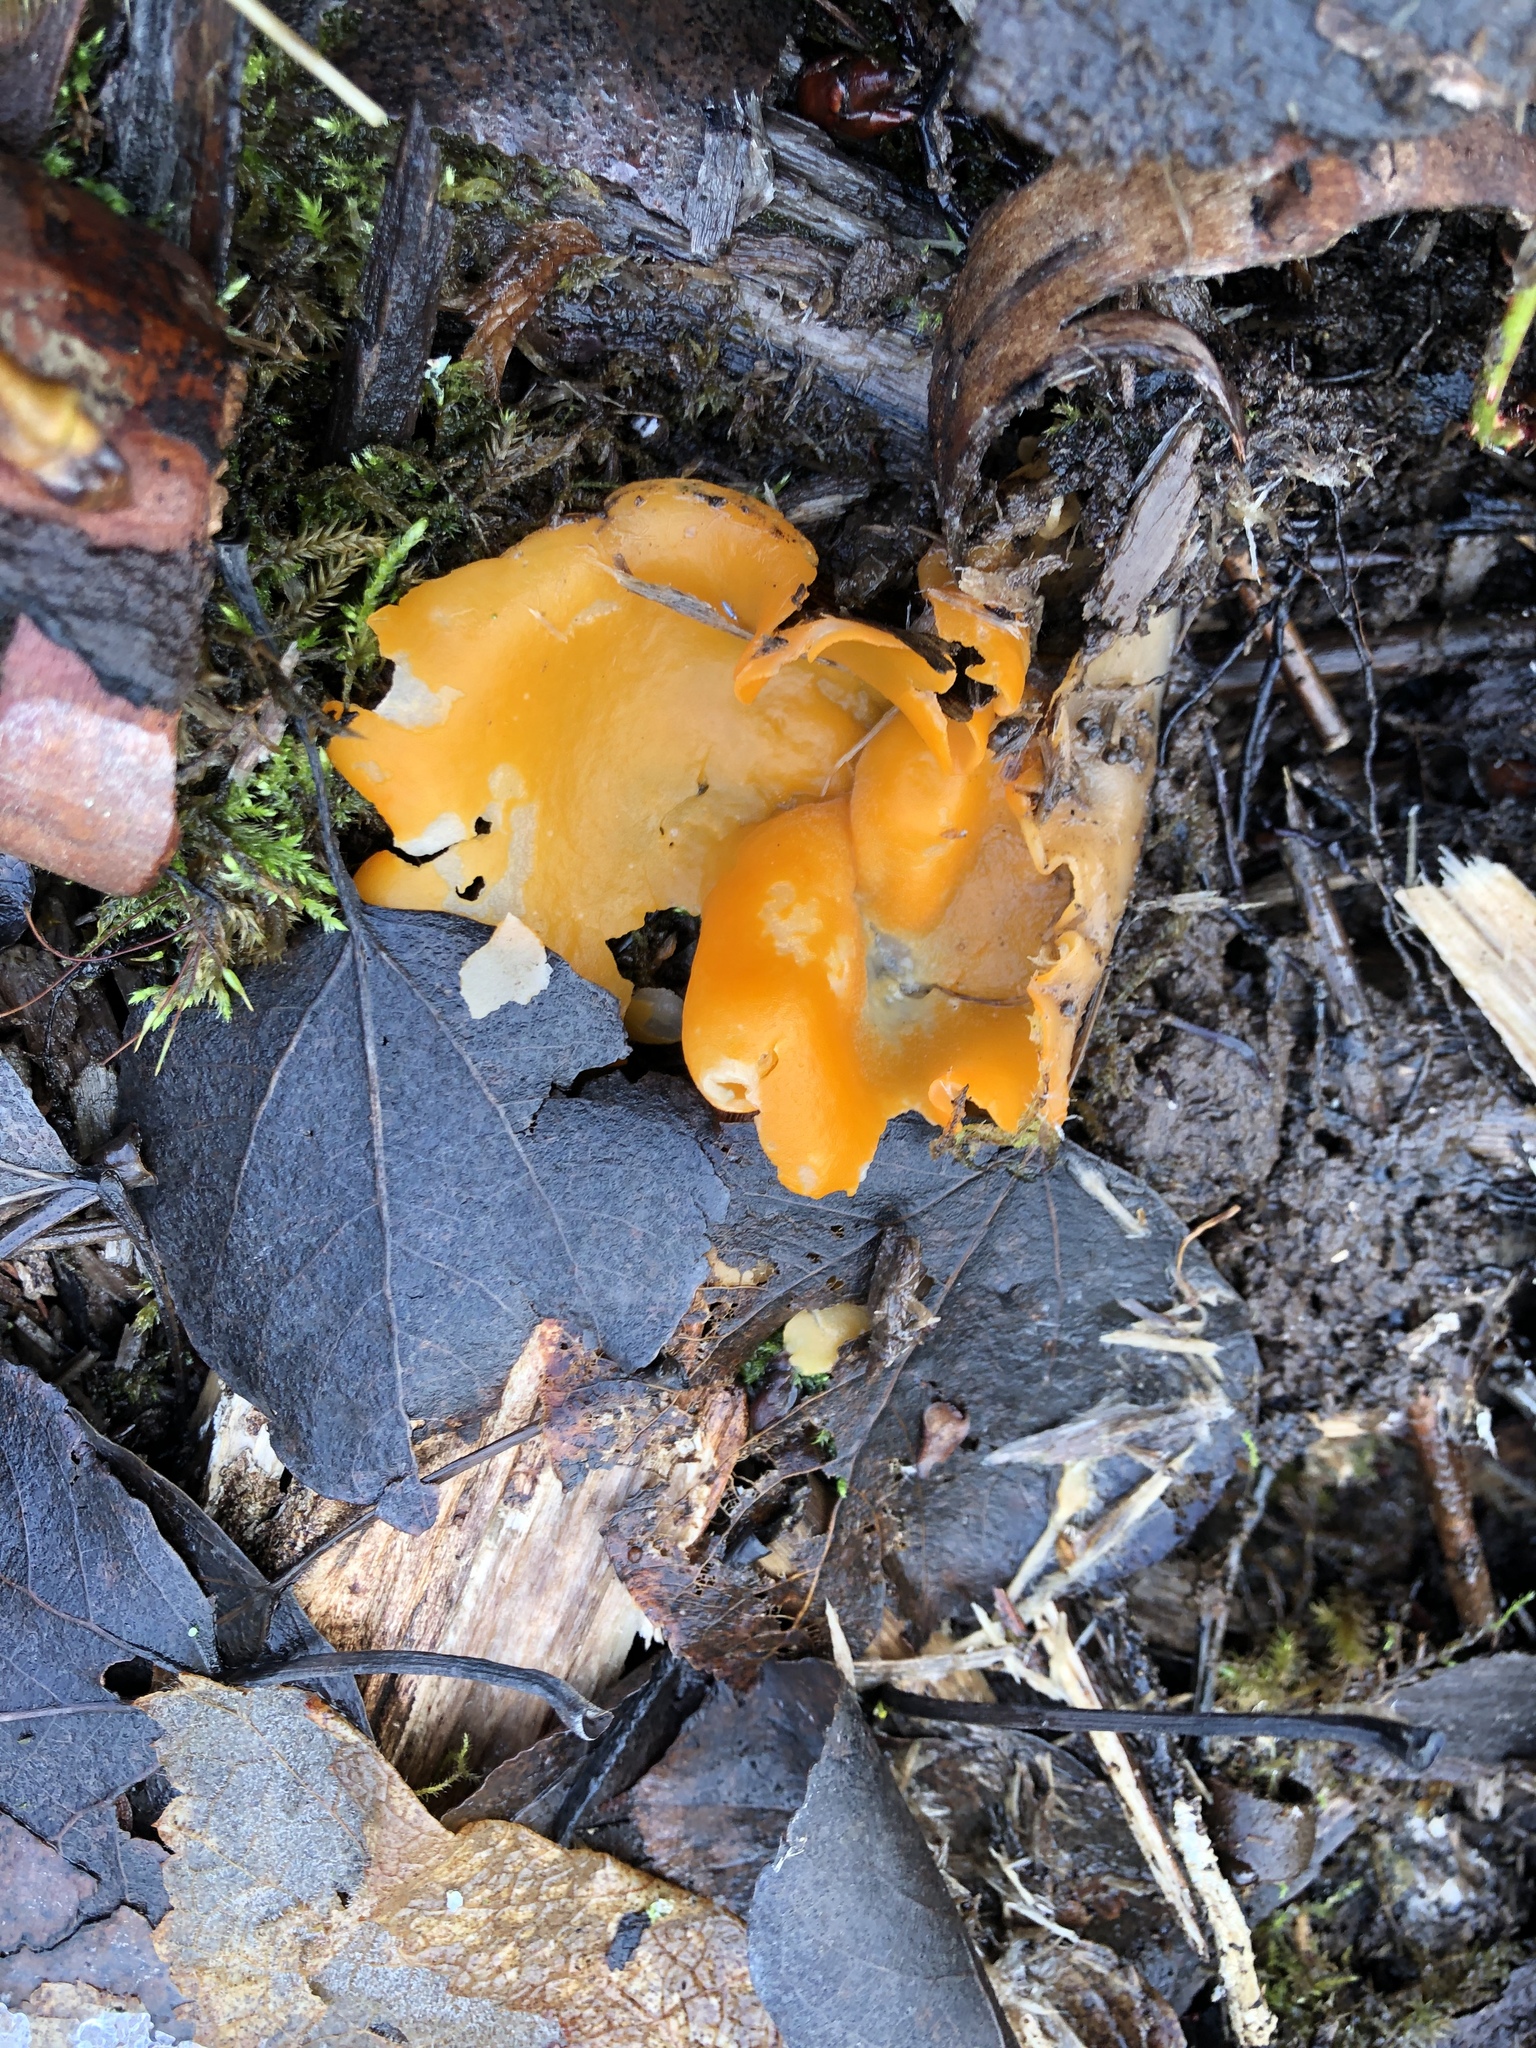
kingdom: Fungi
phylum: Ascomycota
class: Pezizomycetes
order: Pezizales
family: Pyronemataceae
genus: Aleuria
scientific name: Aleuria aurantia
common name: Orange peel fungus
